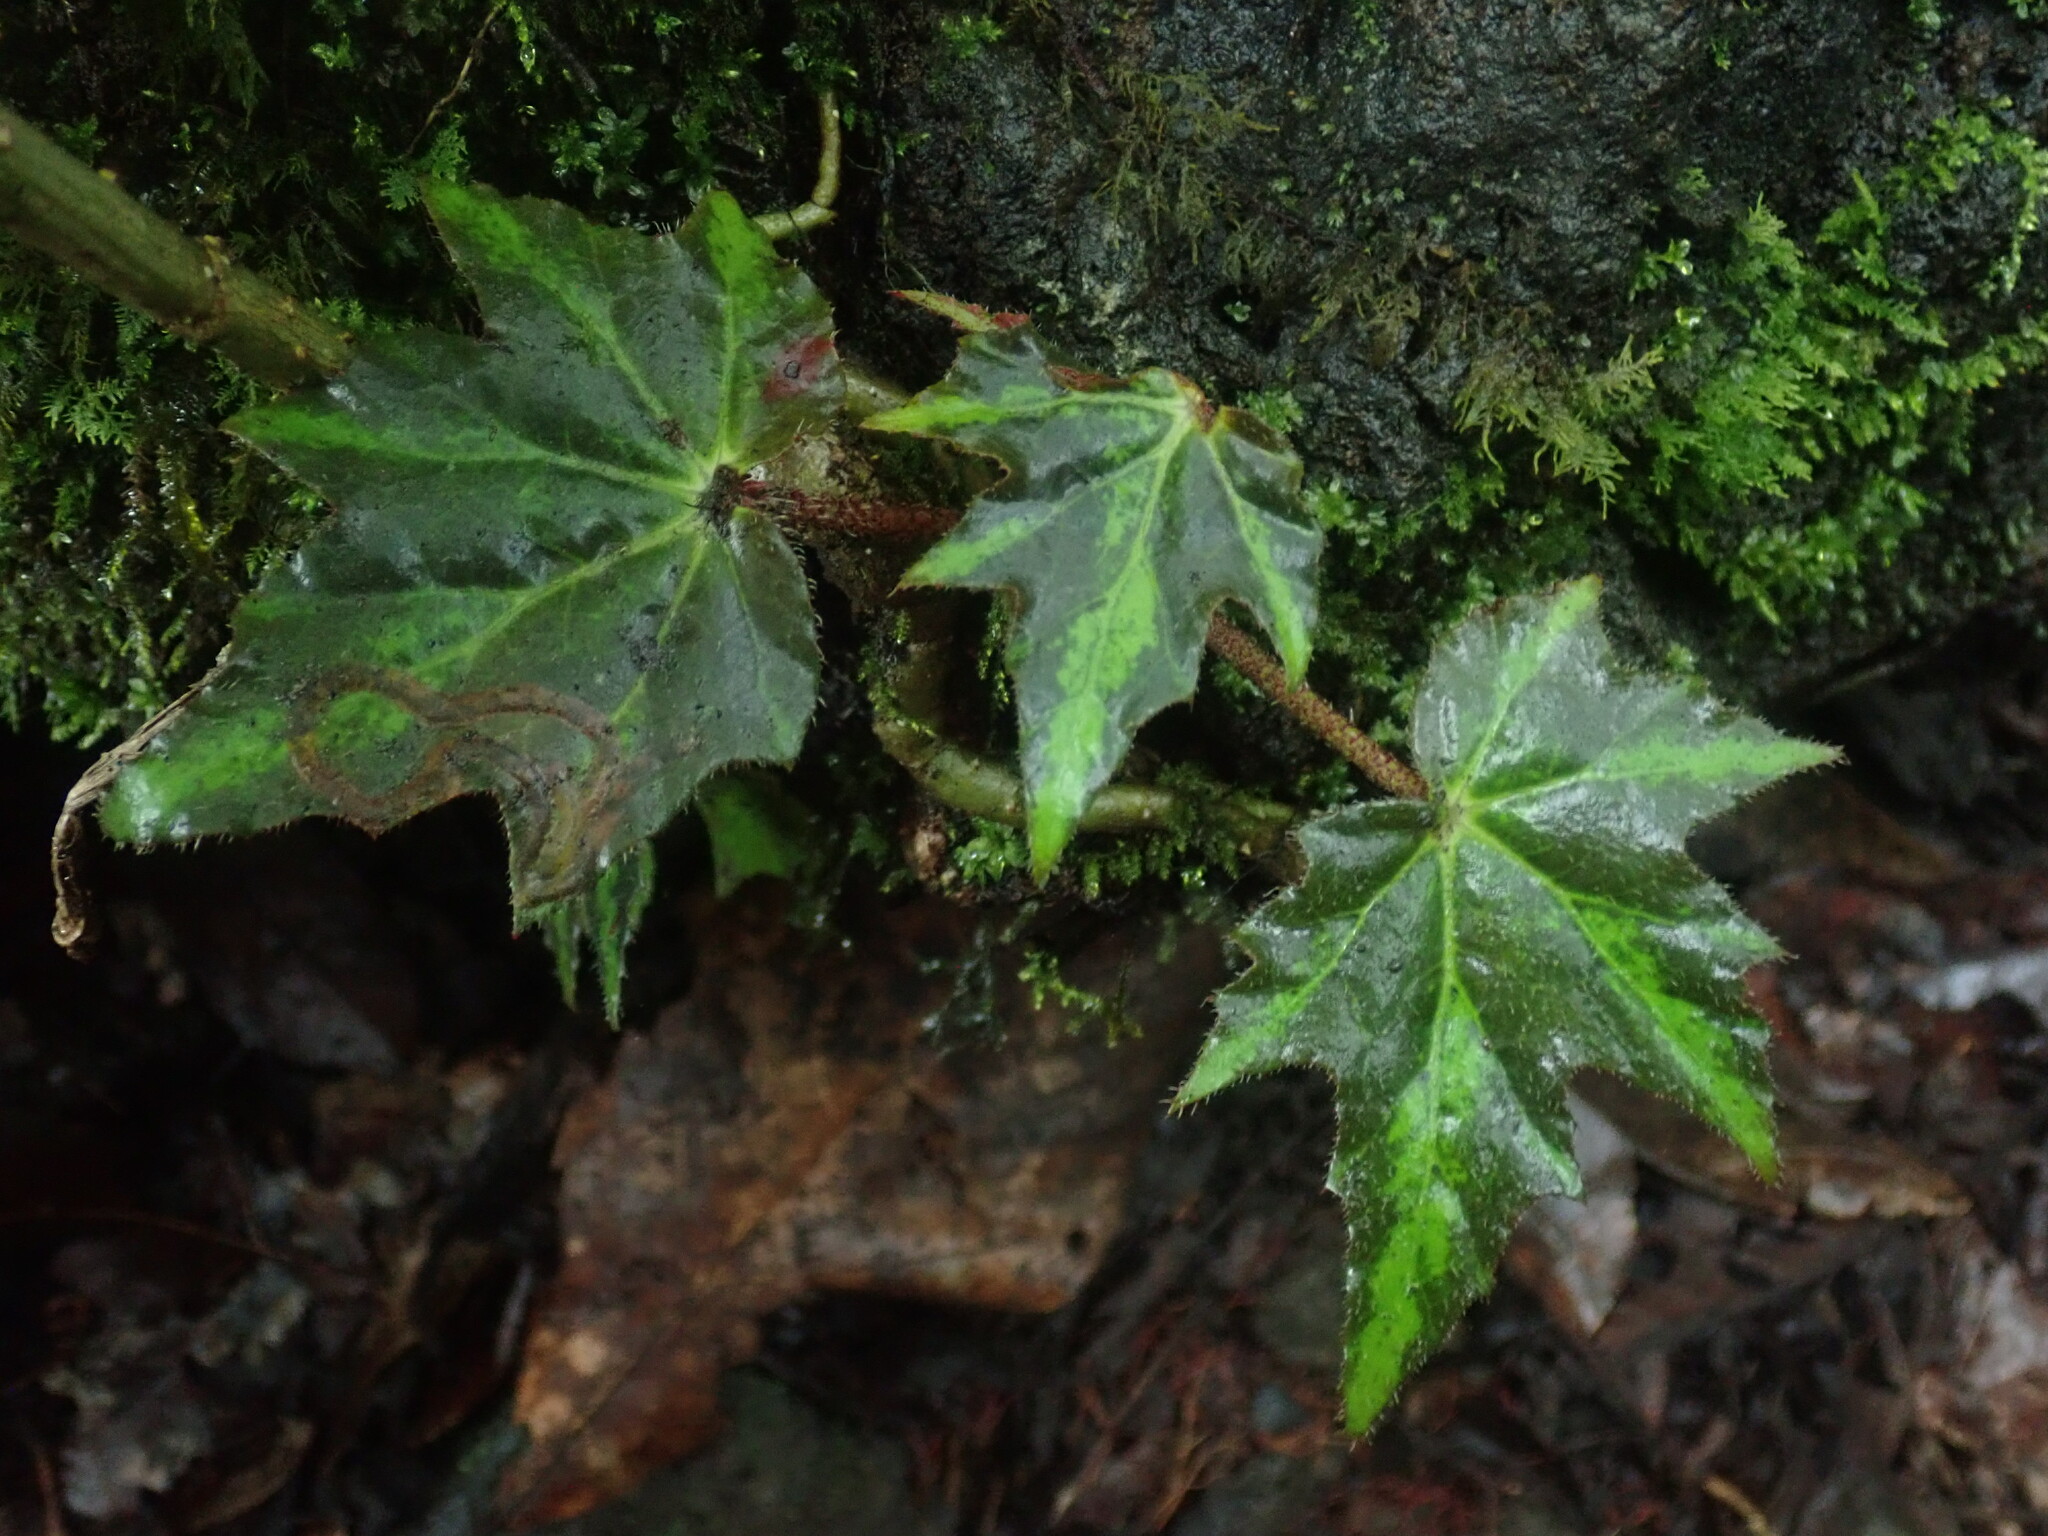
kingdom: Plantae
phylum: Tracheophyta
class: Magnoliopsida
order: Cucurbitales
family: Begoniaceae
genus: Begonia
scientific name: Begonia heracleifolia
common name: Star begonia
